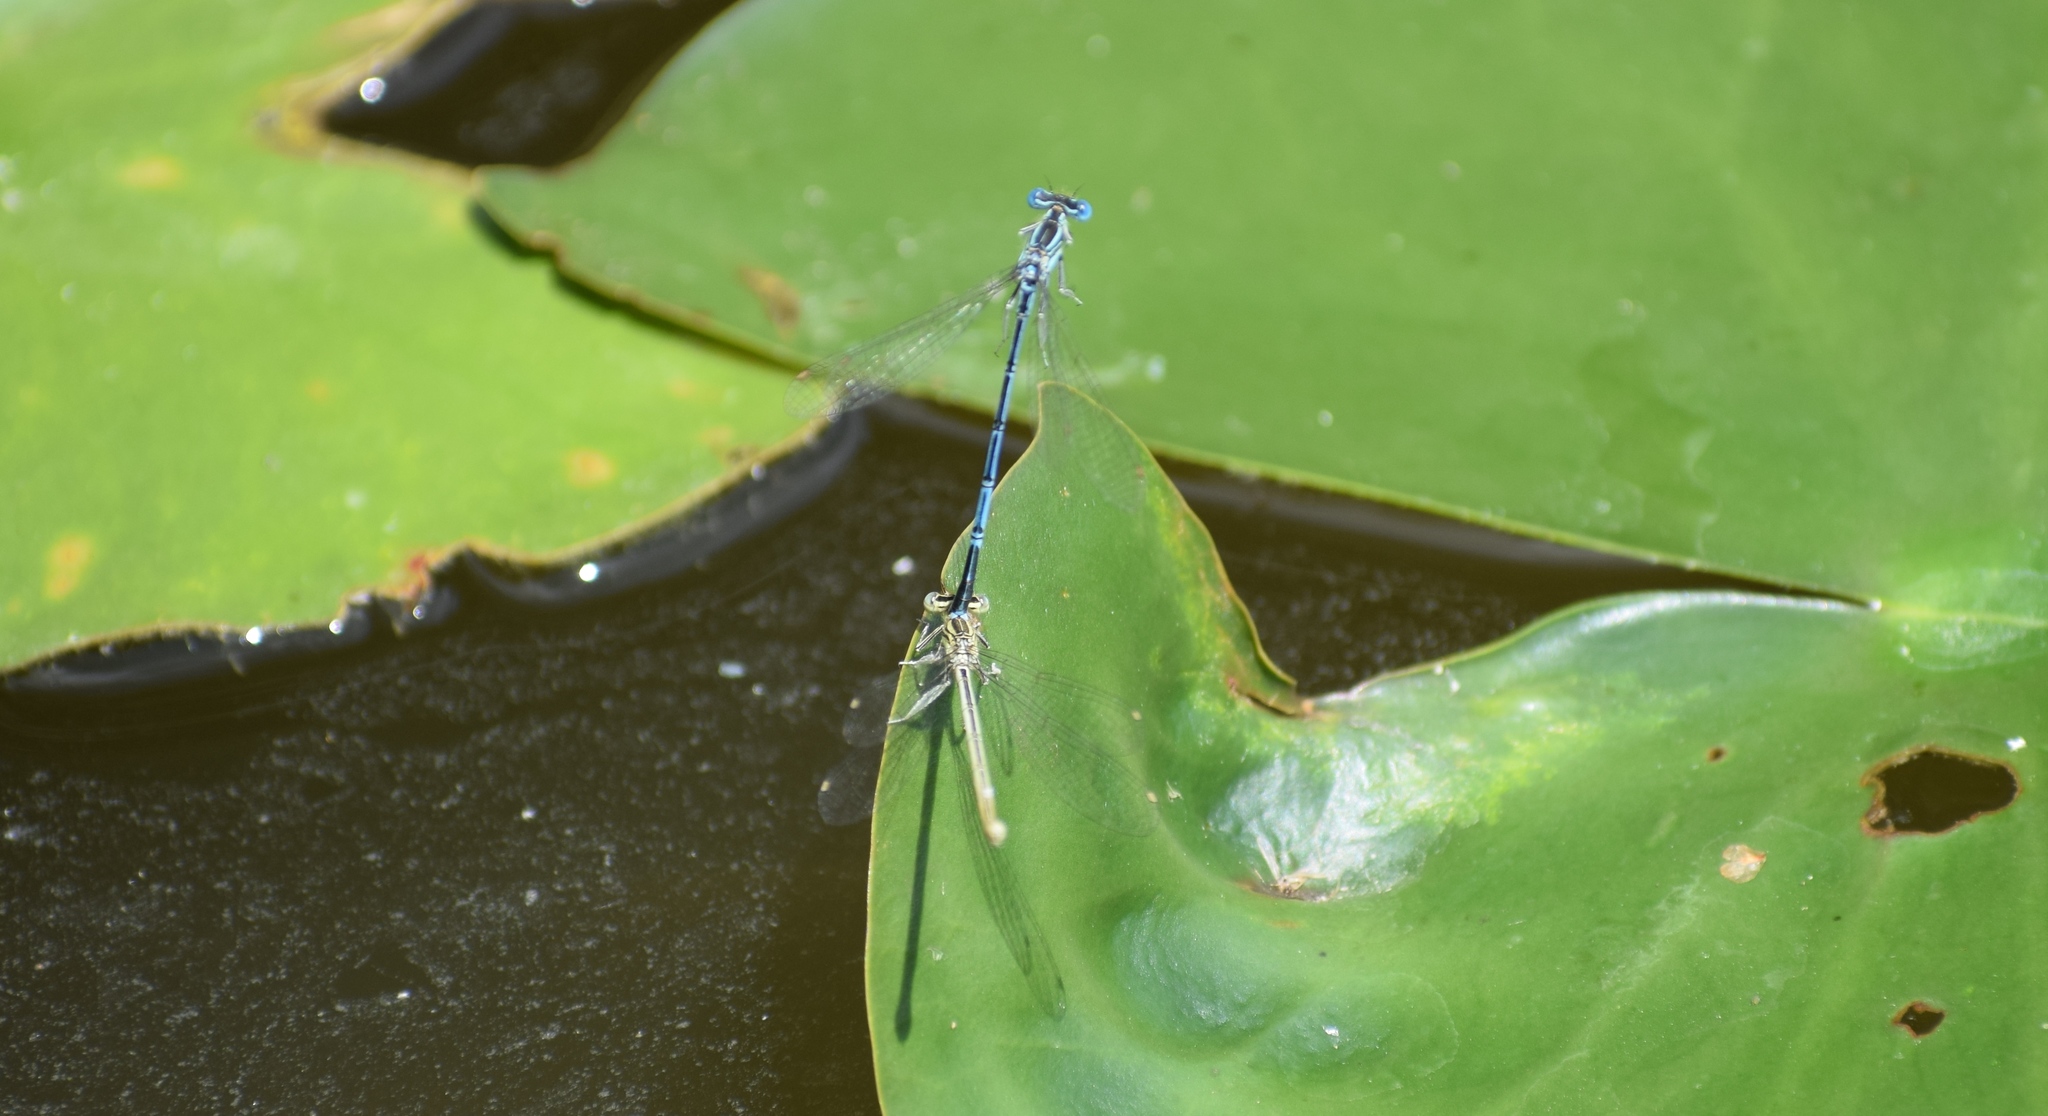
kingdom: Animalia
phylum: Arthropoda
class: Insecta
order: Odonata
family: Platycnemididae
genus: Platycnemis
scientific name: Platycnemis pennipes
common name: White-legged damselfly
